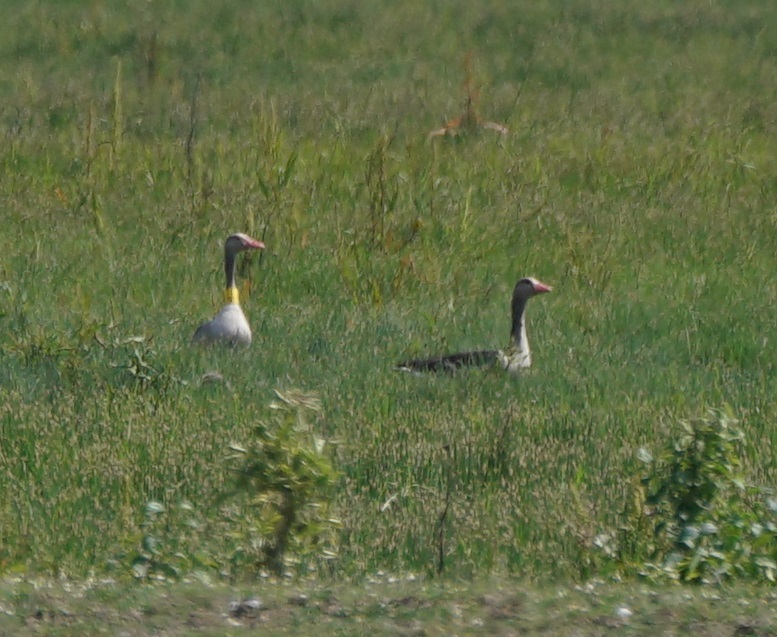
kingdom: Animalia
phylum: Chordata
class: Aves
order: Anseriformes
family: Anatidae
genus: Anser
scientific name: Anser anser
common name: Greylag goose
